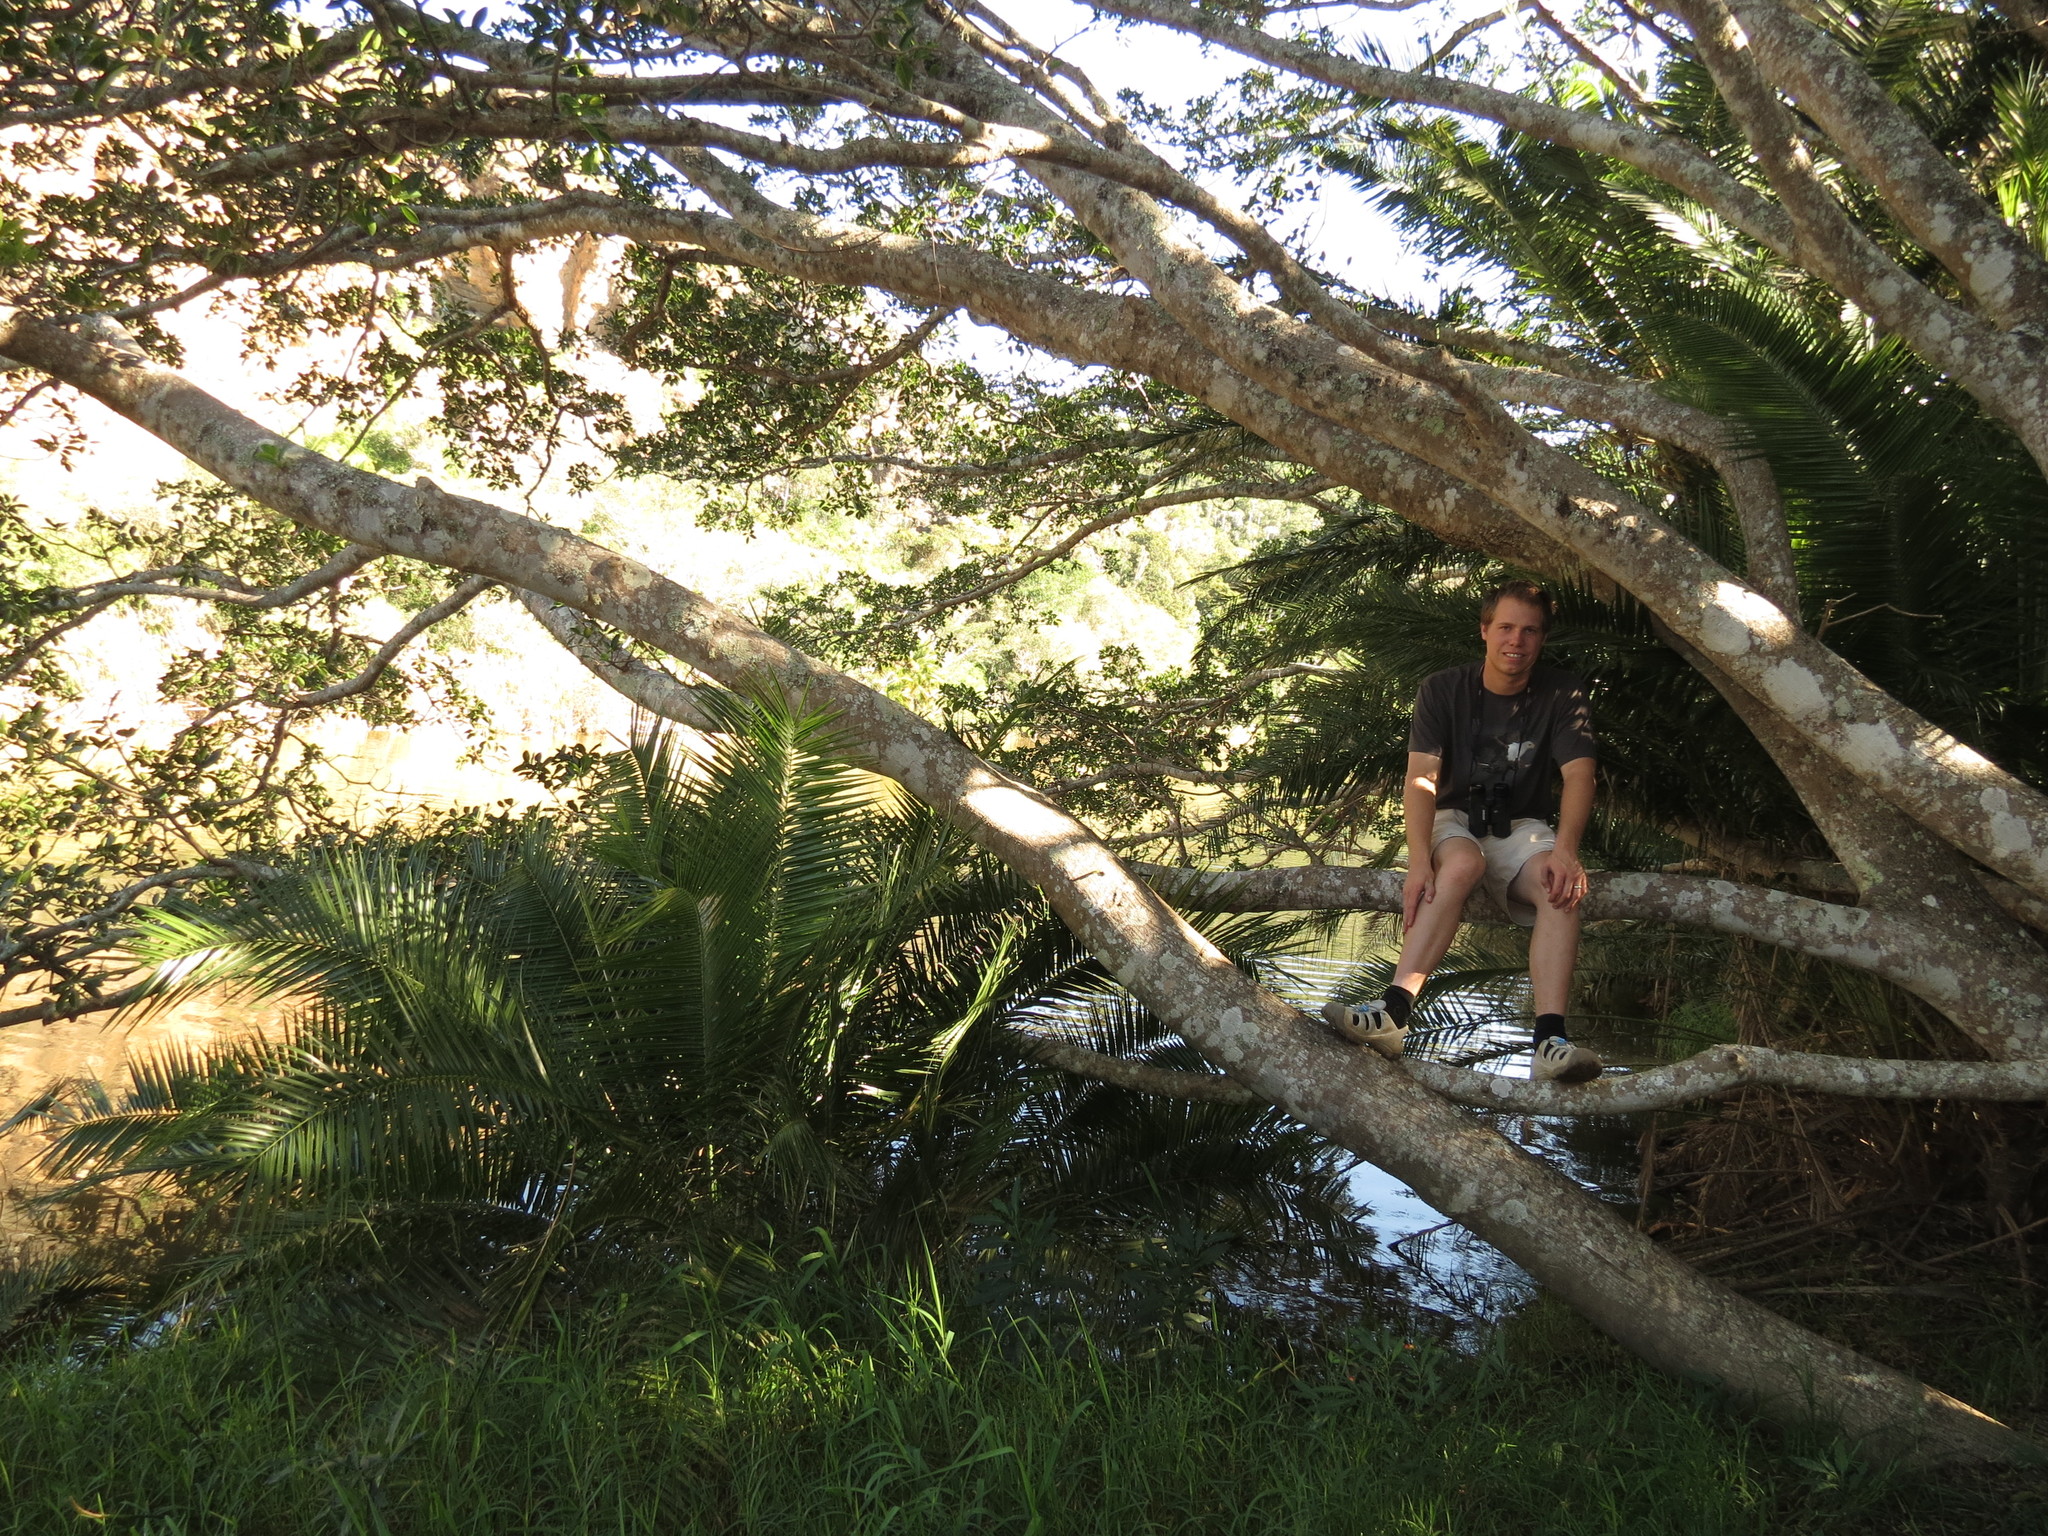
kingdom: Plantae
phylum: Tracheophyta
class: Magnoliopsida
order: Rosales
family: Moraceae
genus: Ficus
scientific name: Ficus thonningii
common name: Fig
